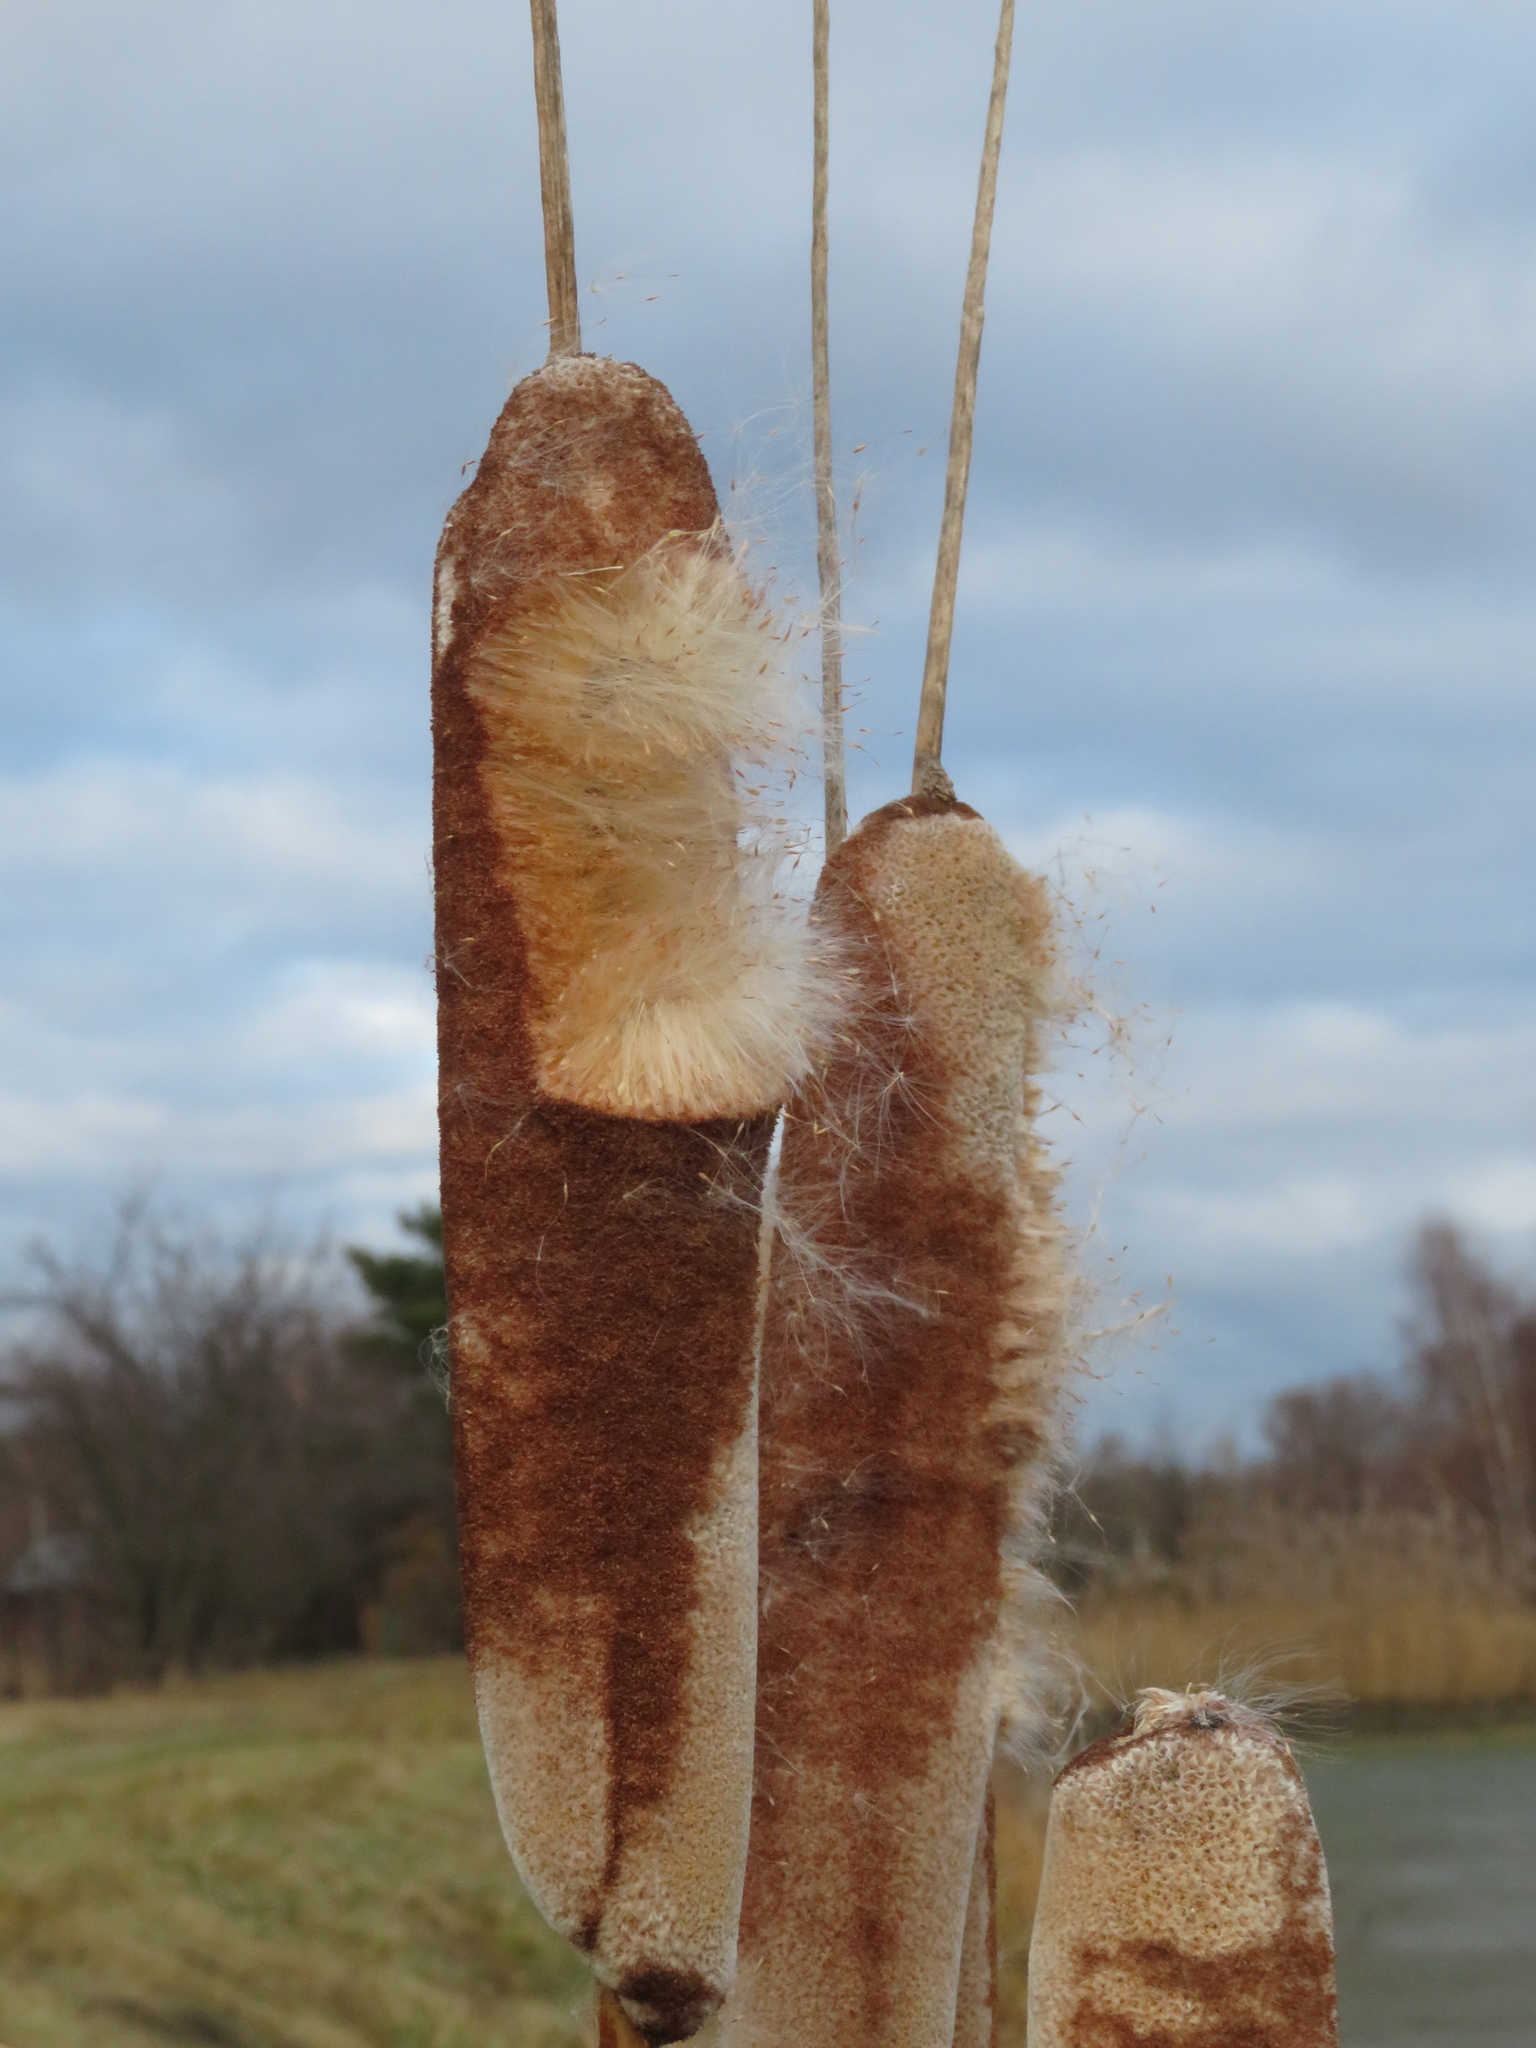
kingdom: Plantae
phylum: Tracheophyta
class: Liliopsida
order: Poales
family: Typhaceae
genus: Typha
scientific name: Typha latifolia
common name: Broadleaf cattail
